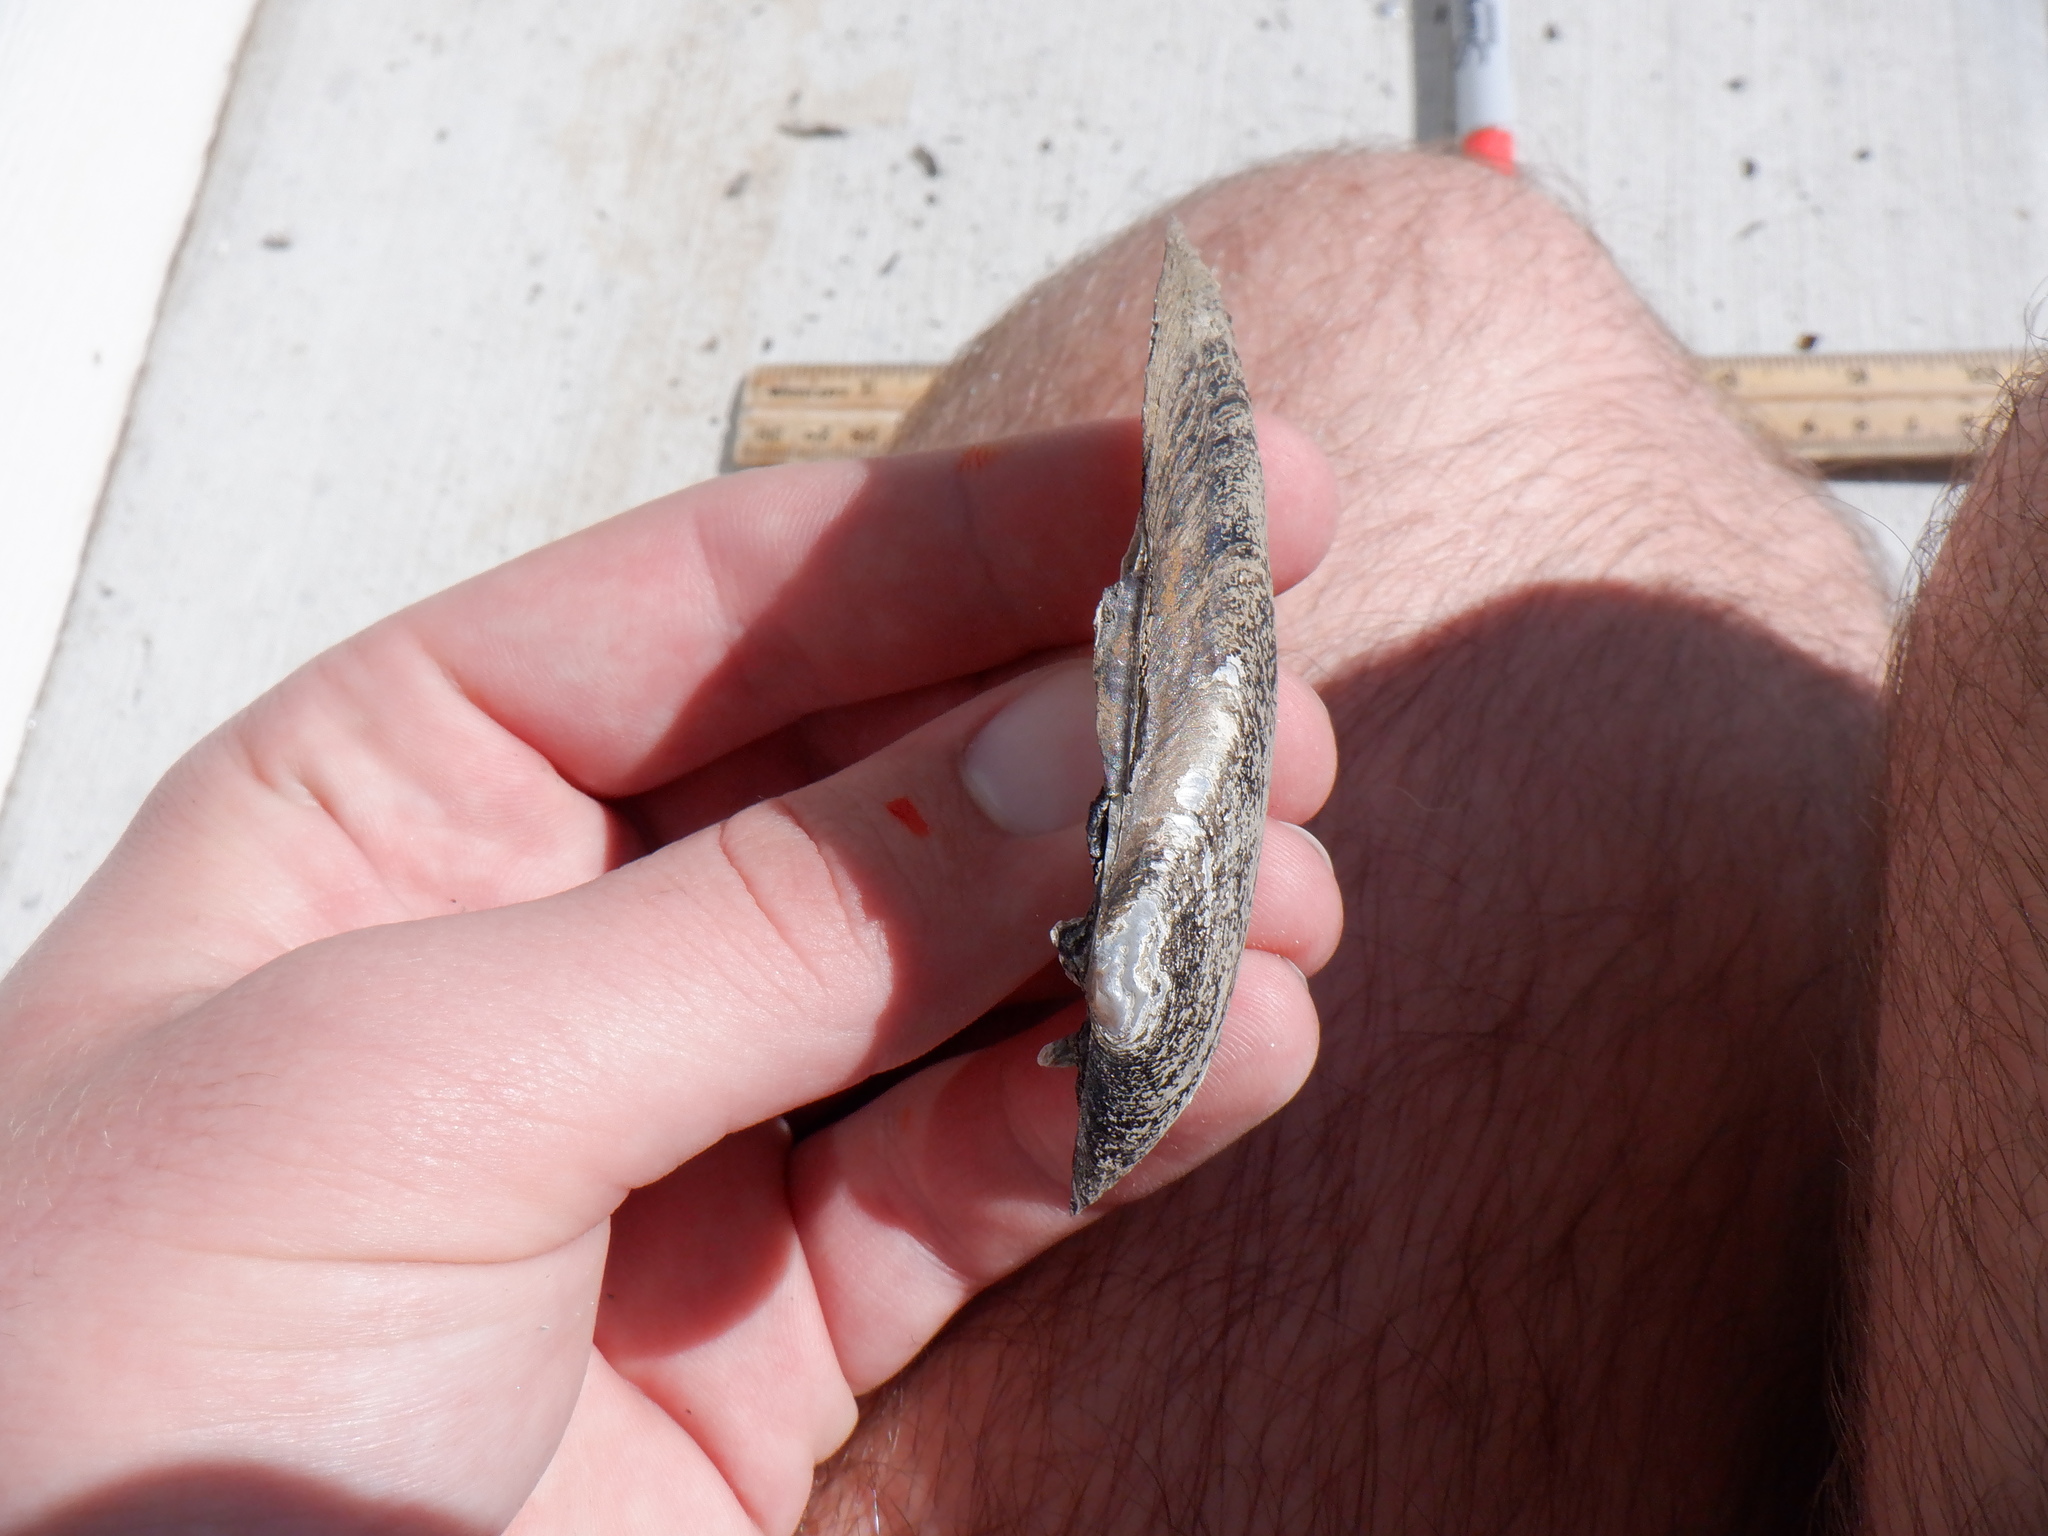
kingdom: Animalia
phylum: Mollusca
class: Bivalvia
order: Unionida
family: Unionidae
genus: Eurynia
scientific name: Eurynia dilatata
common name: Spike
